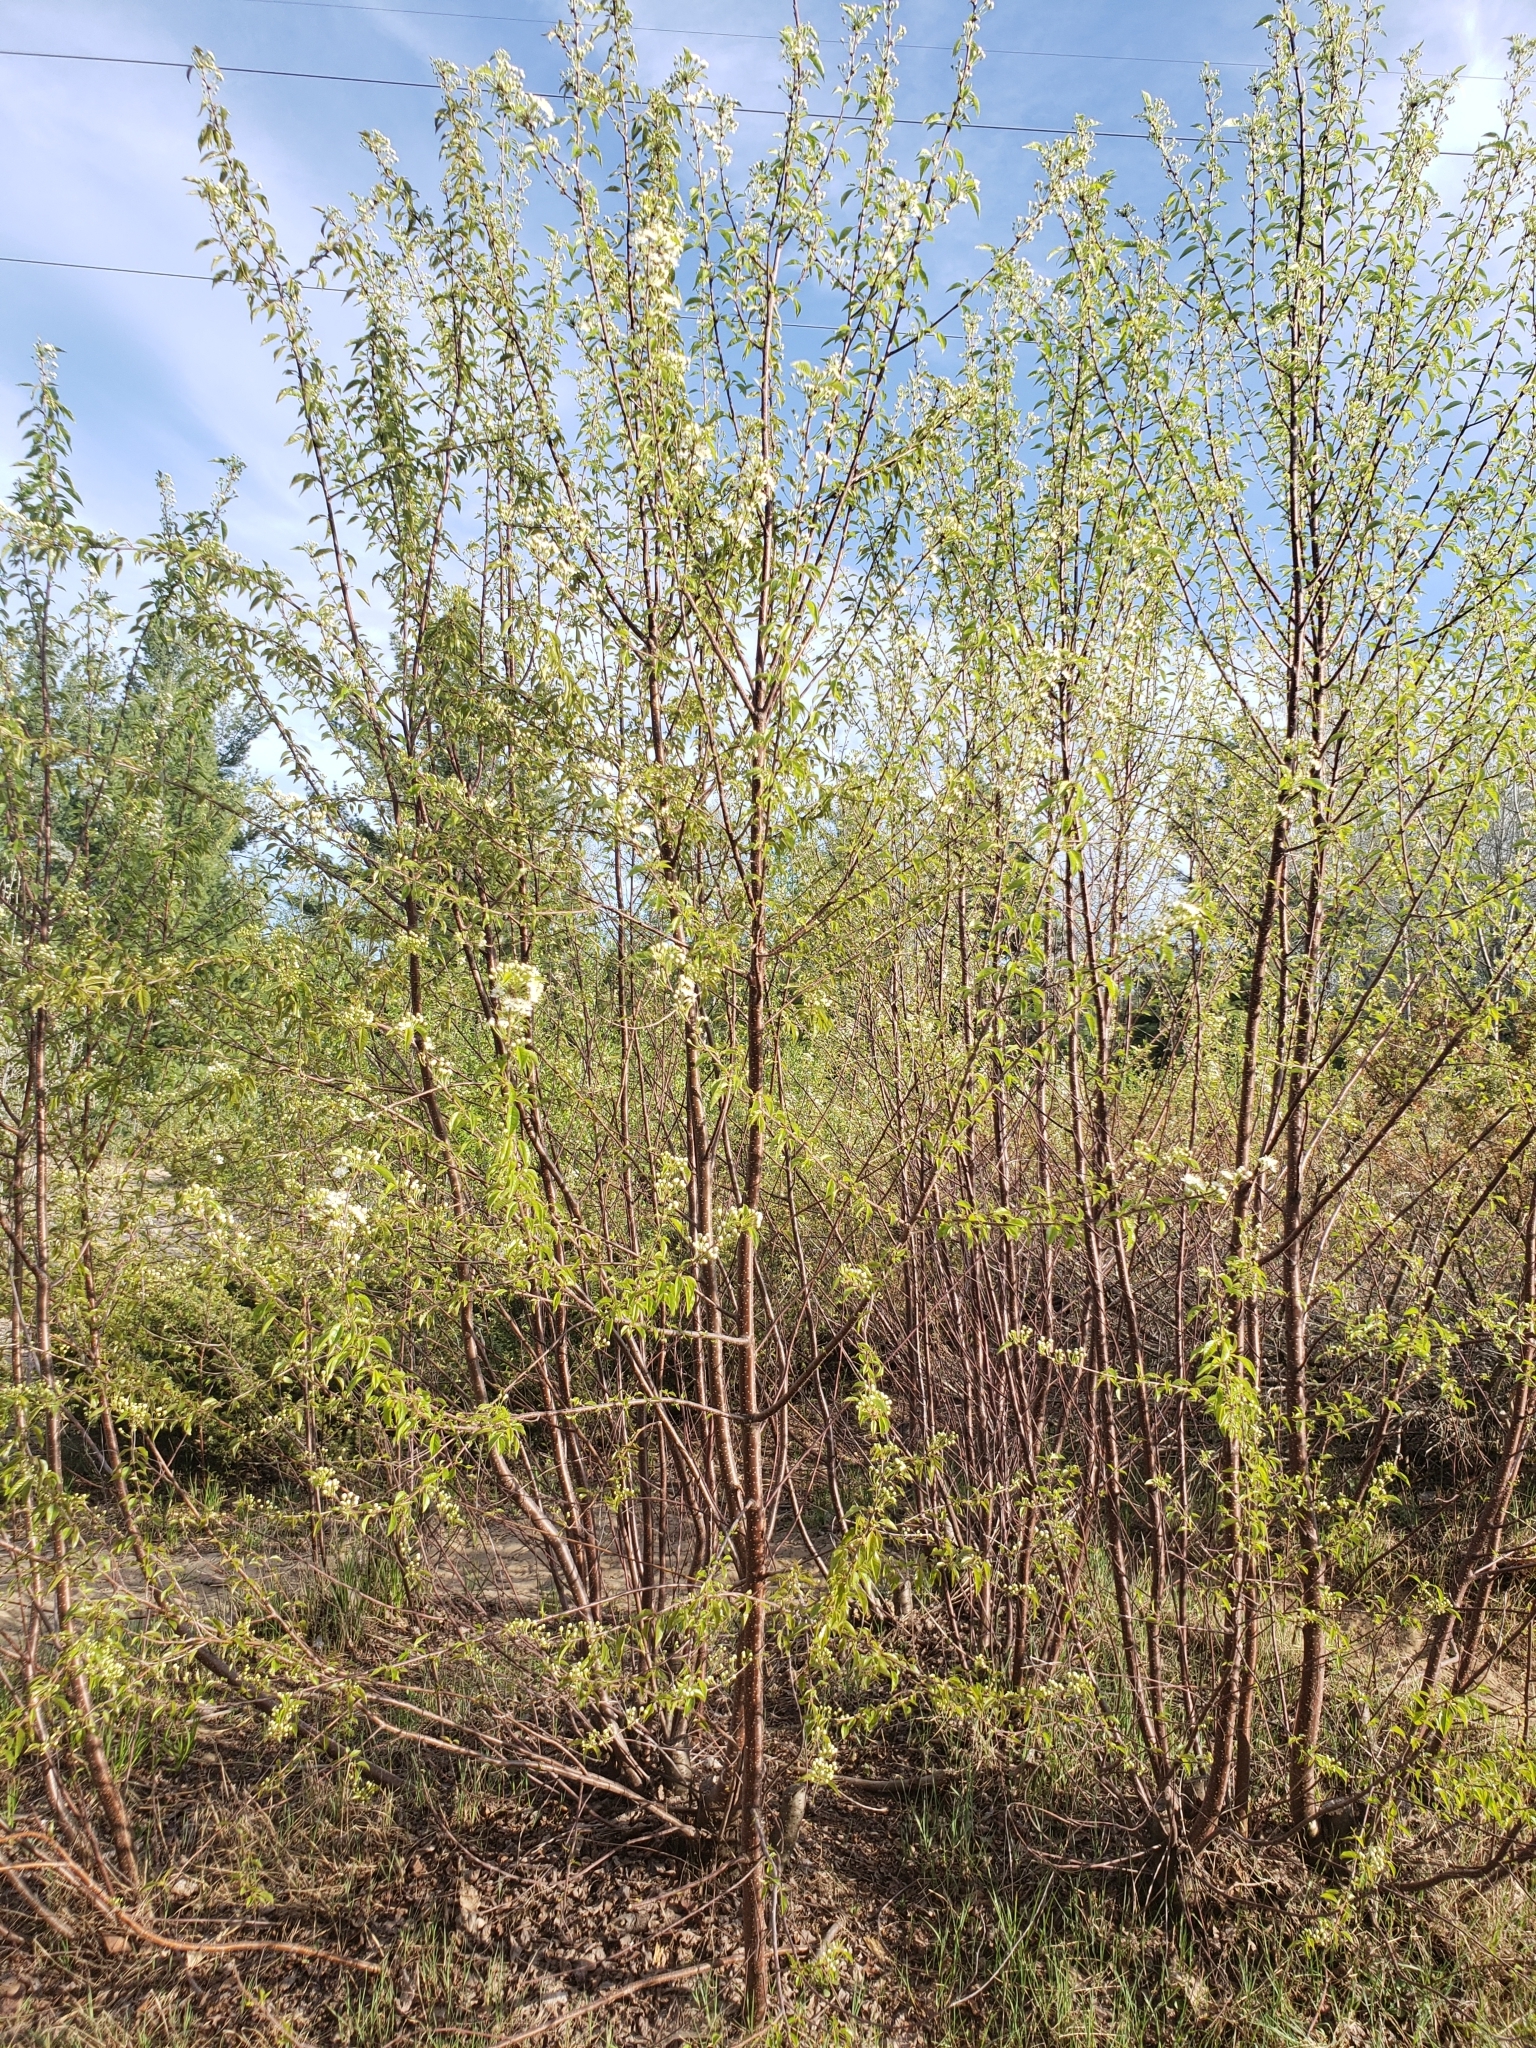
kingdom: Plantae
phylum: Tracheophyta
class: Magnoliopsida
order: Rosales
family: Rosaceae
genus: Prunus
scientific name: Prunus pensylvanica
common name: Pin cherry
